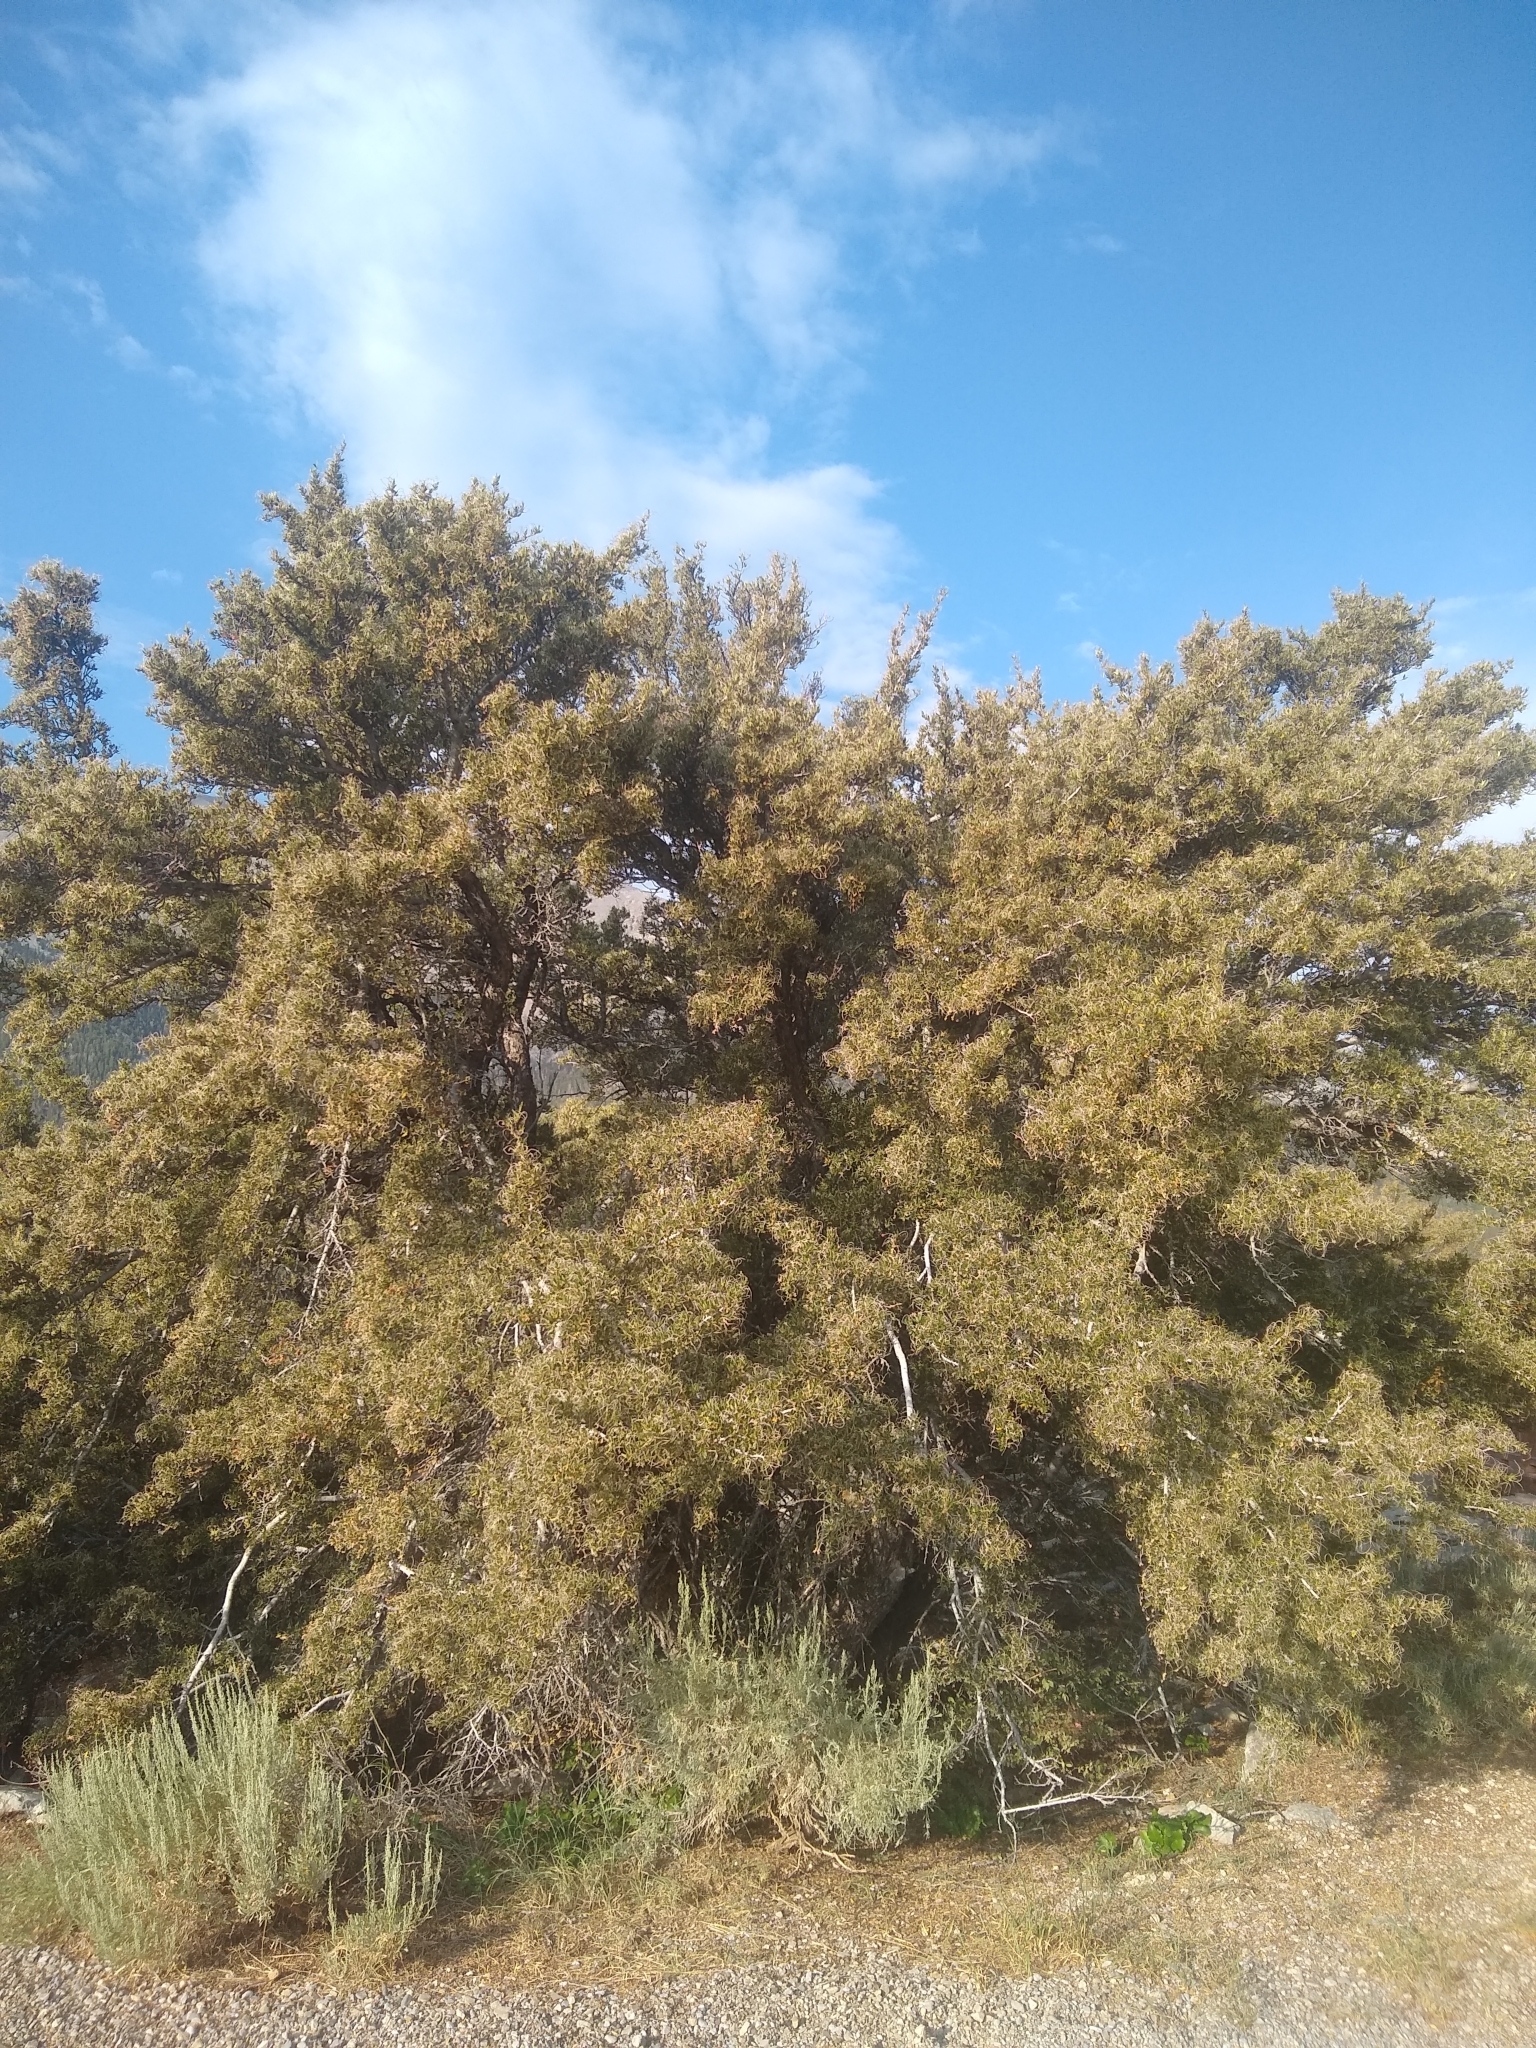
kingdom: Plantae
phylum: Tracheophyta
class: Magnoliopsida
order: Rosales
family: Rosaceae
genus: Cercocarpus
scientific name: Cercocarpus ledifolius
